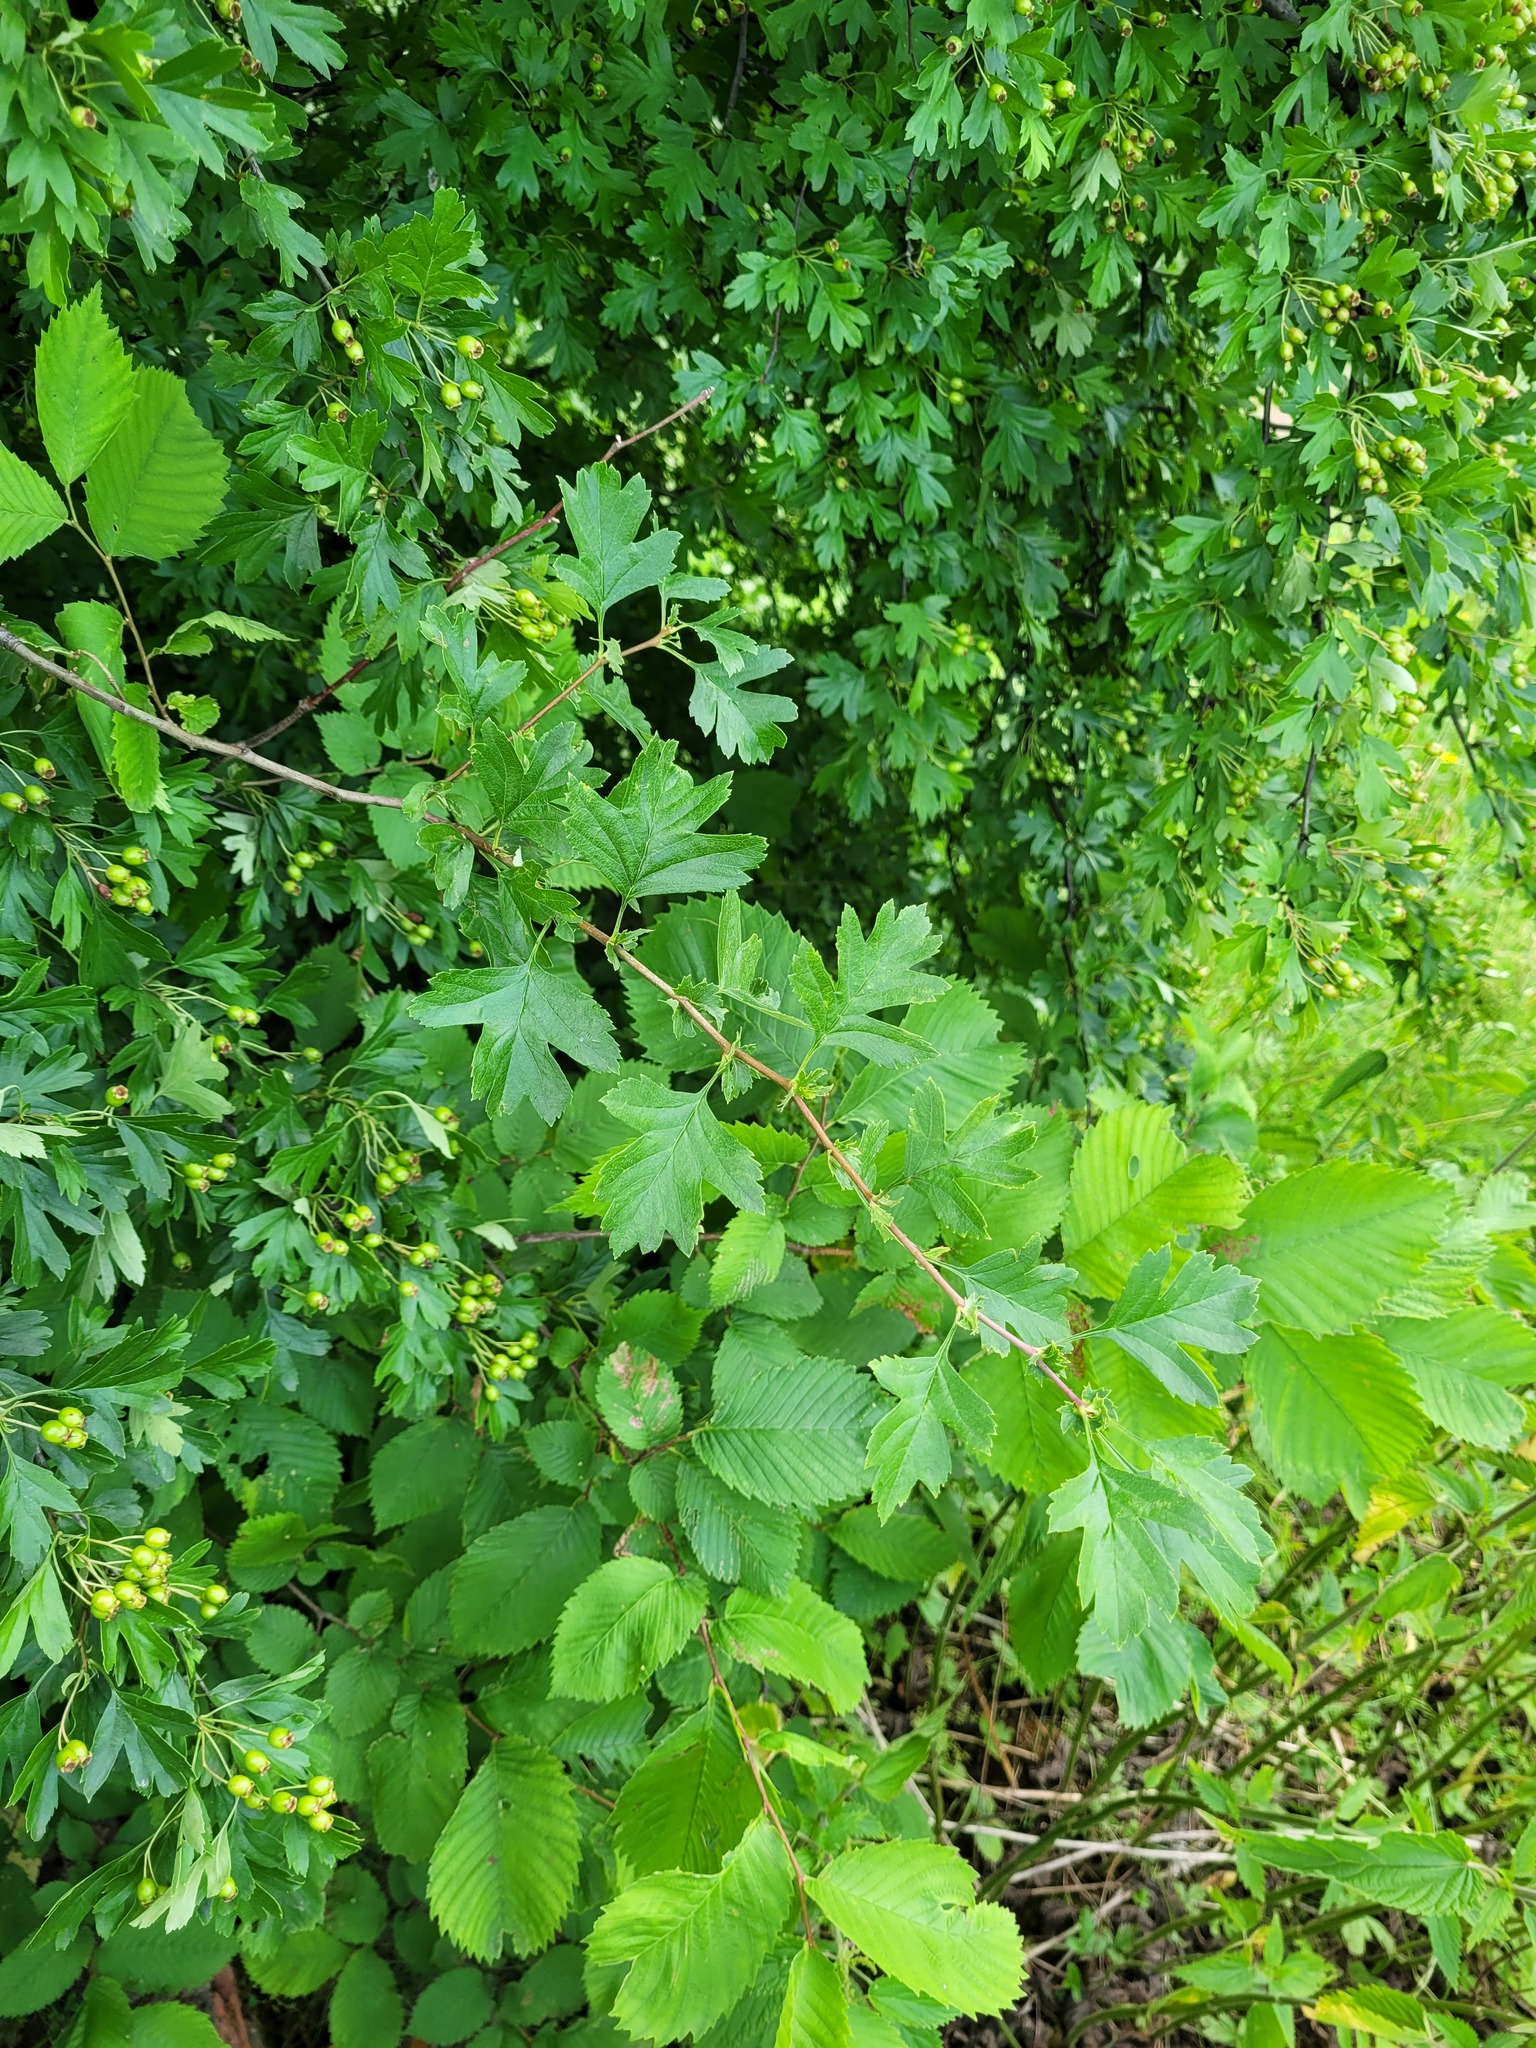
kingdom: Plantae
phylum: Tracheophyta
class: Magnoliopsida
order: Rosales
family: Rosaceae
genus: Crataegus
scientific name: Crataegus monogyna
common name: Hawthorn
